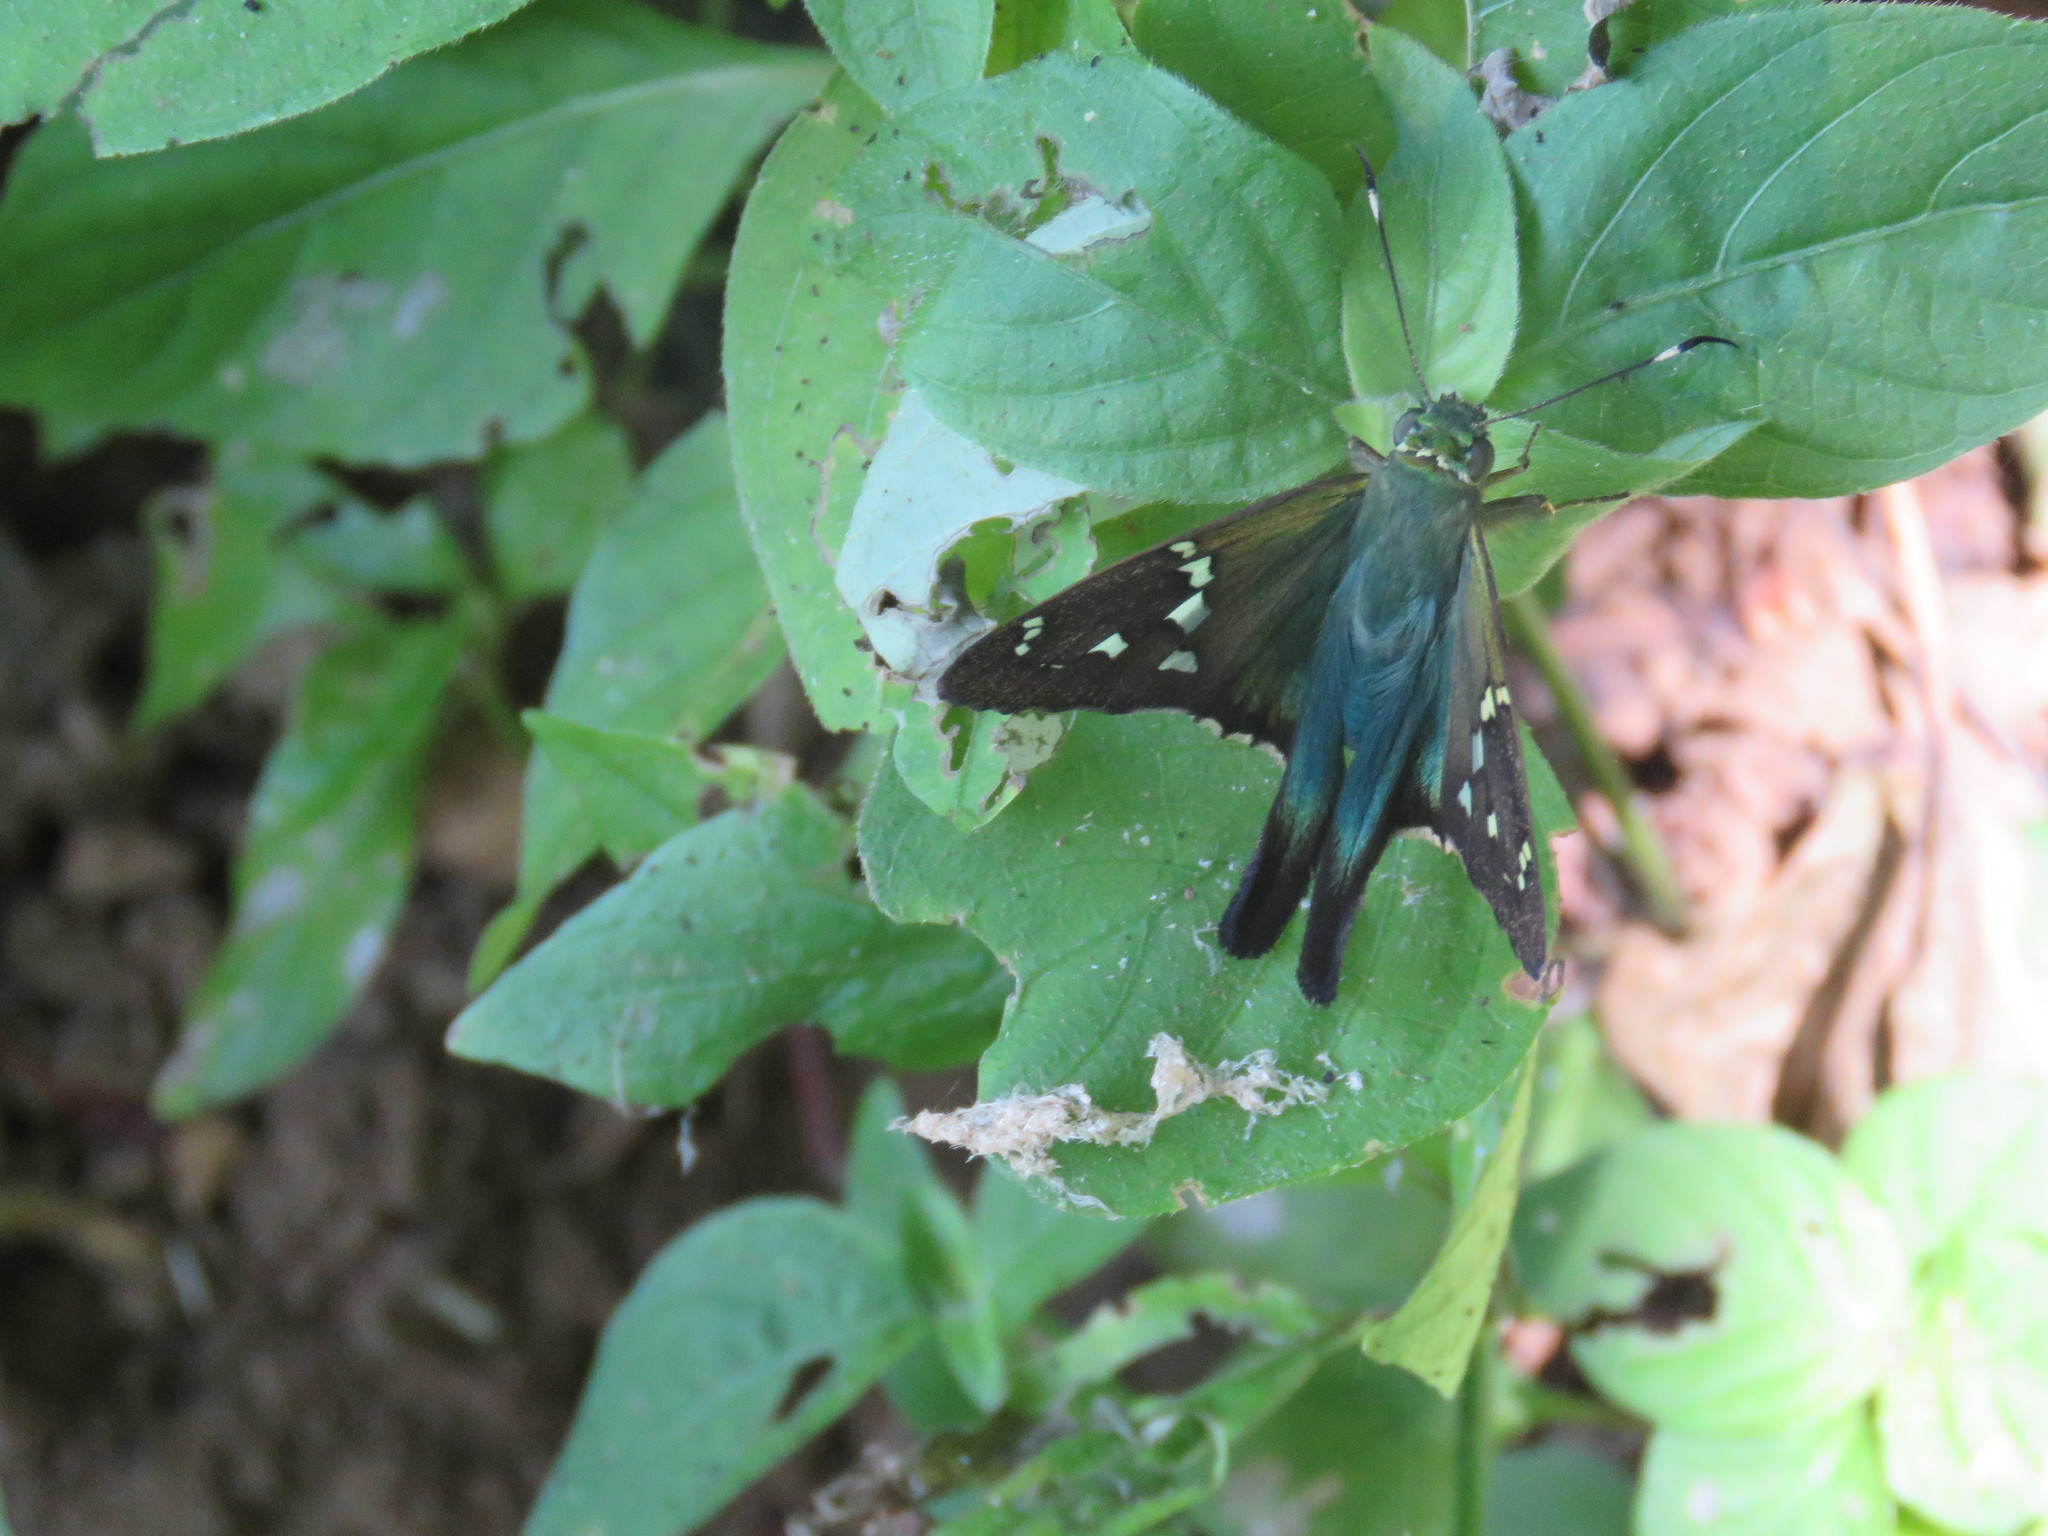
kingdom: Animalia
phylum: Arthropoda
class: Insecta
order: Lepidoptera
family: Hesperiidae
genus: Urbanus
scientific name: Urbanus esmeraldus
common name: Esmeralda longtail
